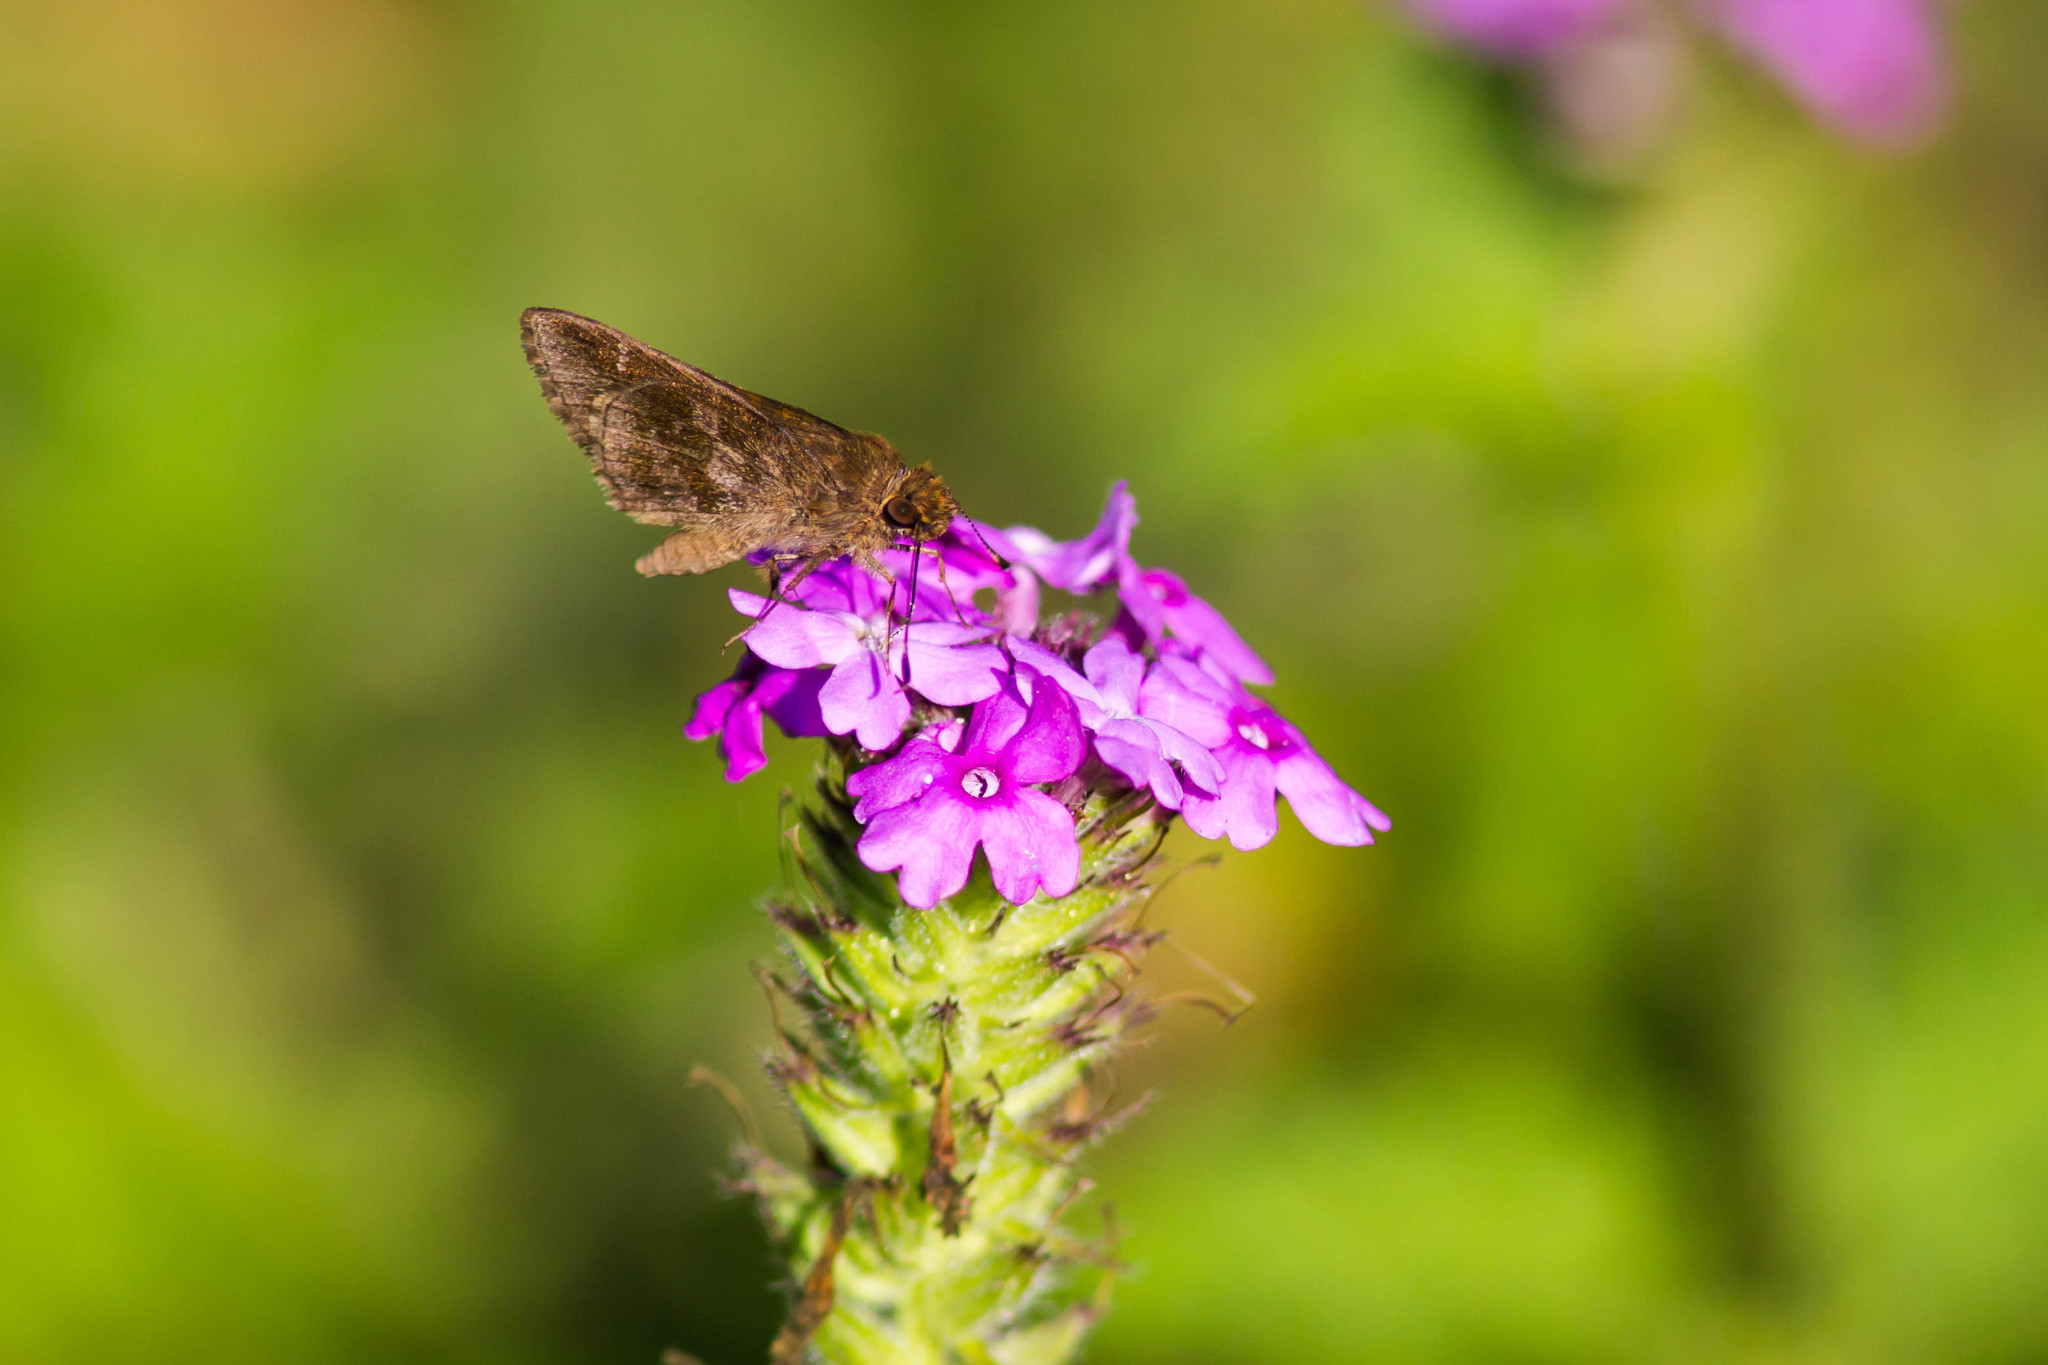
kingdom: Animalia
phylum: Arthropoda
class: Insecta
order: Lepidoptera
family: Hesperiidae
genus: Cymaenes
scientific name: Cymaenes
